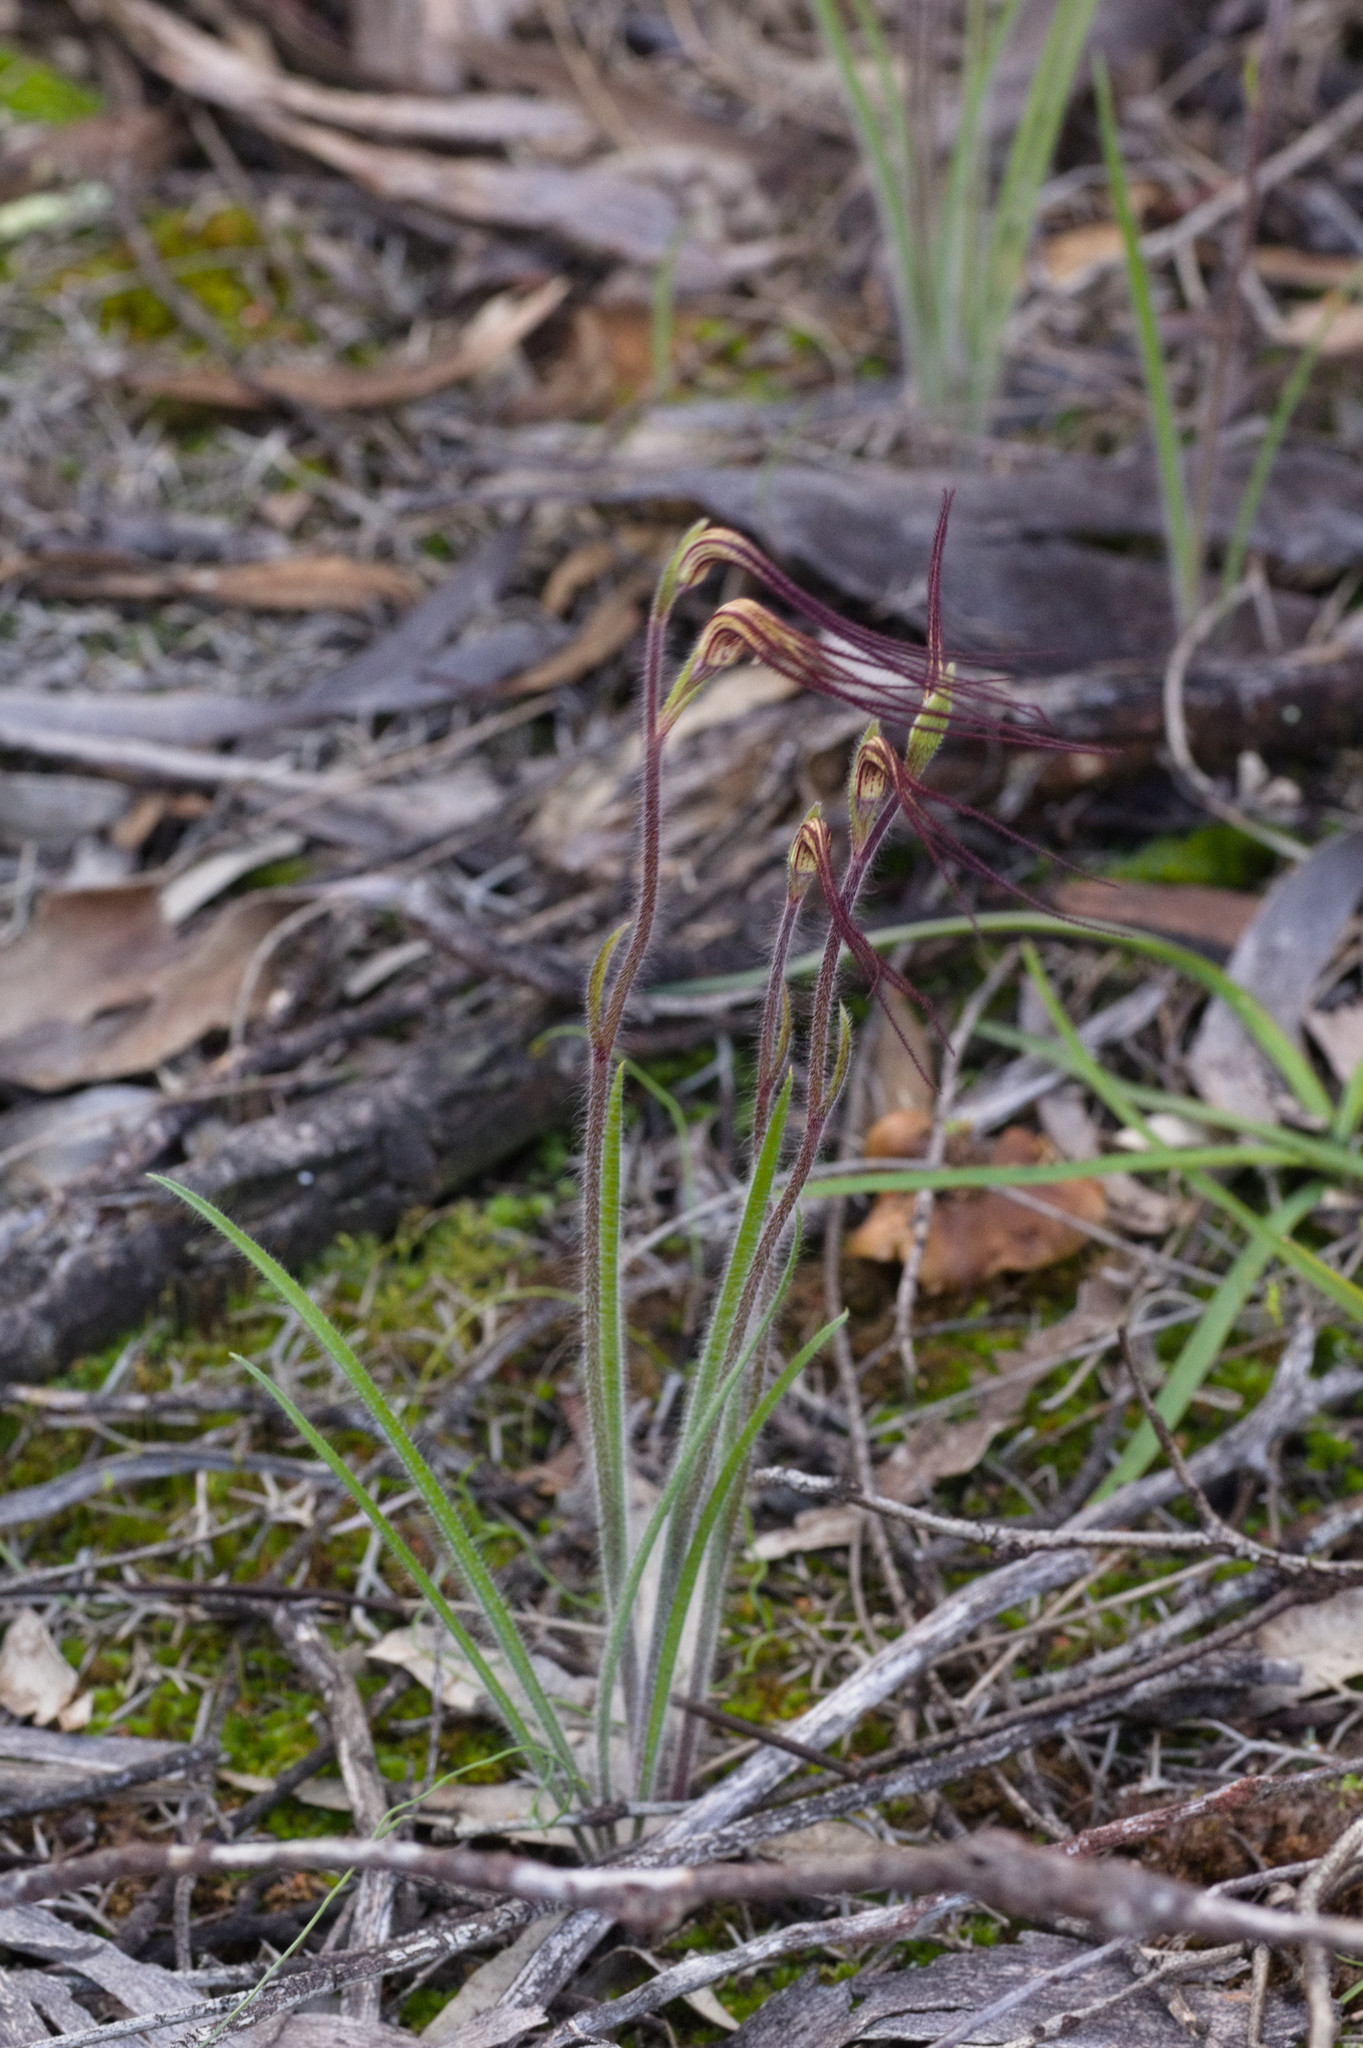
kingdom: Plantae
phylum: Tracheophyta
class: Liliopsida
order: Asparagales
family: Orchidaceae
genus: Caladenia
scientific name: Caladenia dimidia
